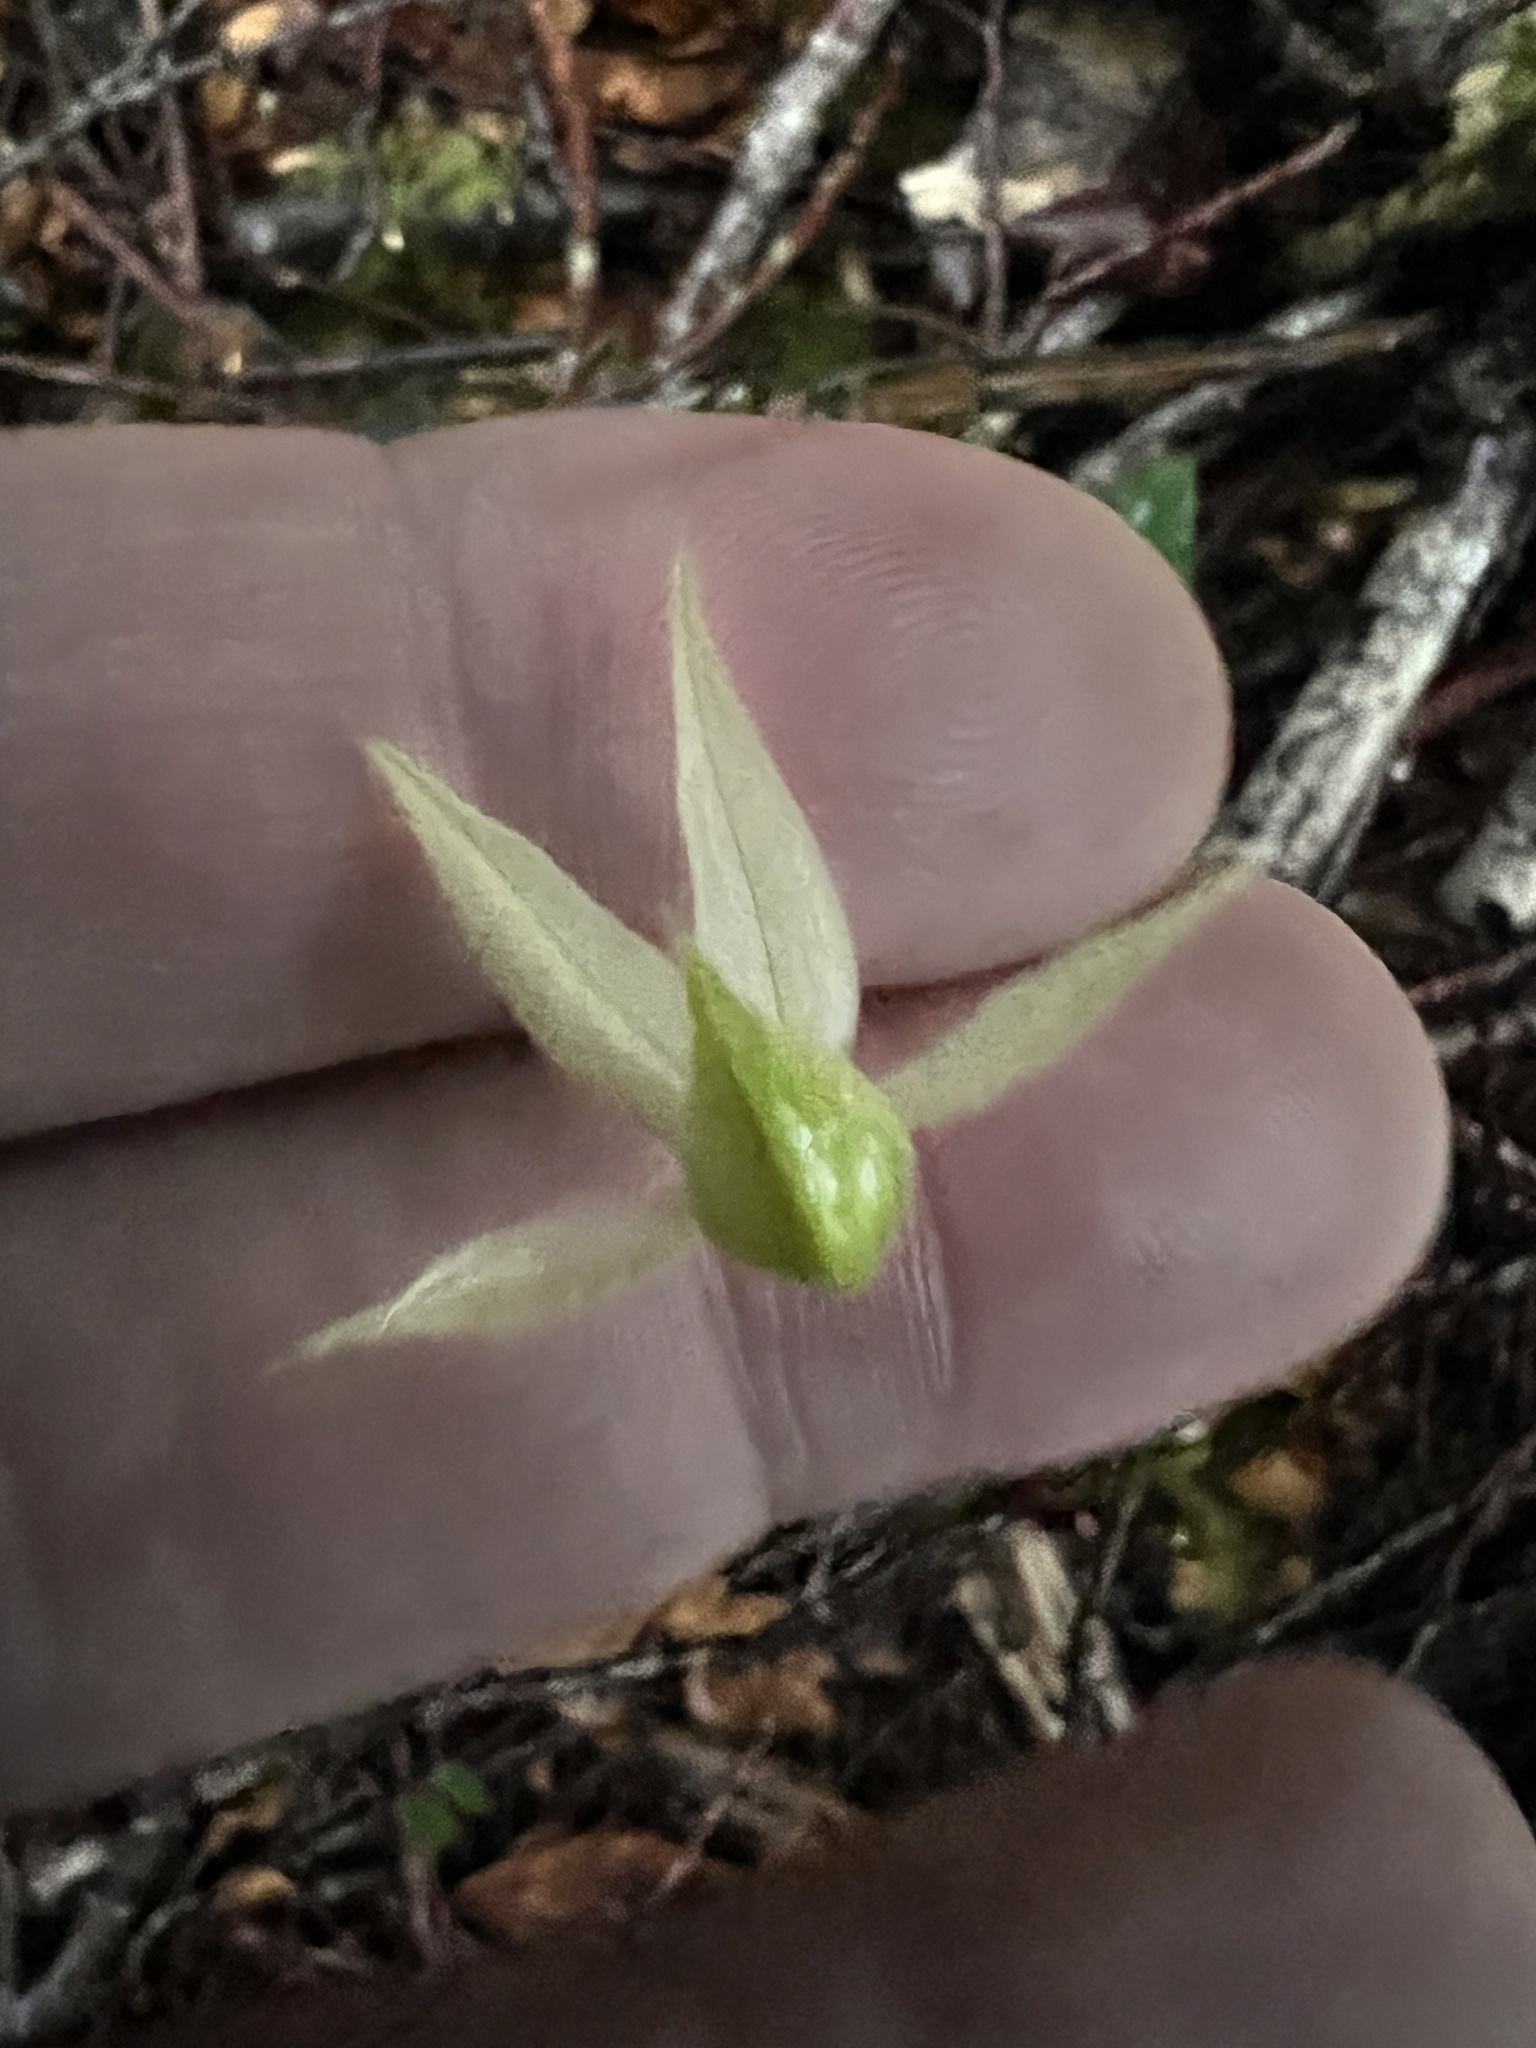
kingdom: Plantae
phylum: Tracheophyta
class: Liliopsida
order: Asparagales
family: Orchidaceae
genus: Adenochilus
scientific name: Adenochilus gracilis
